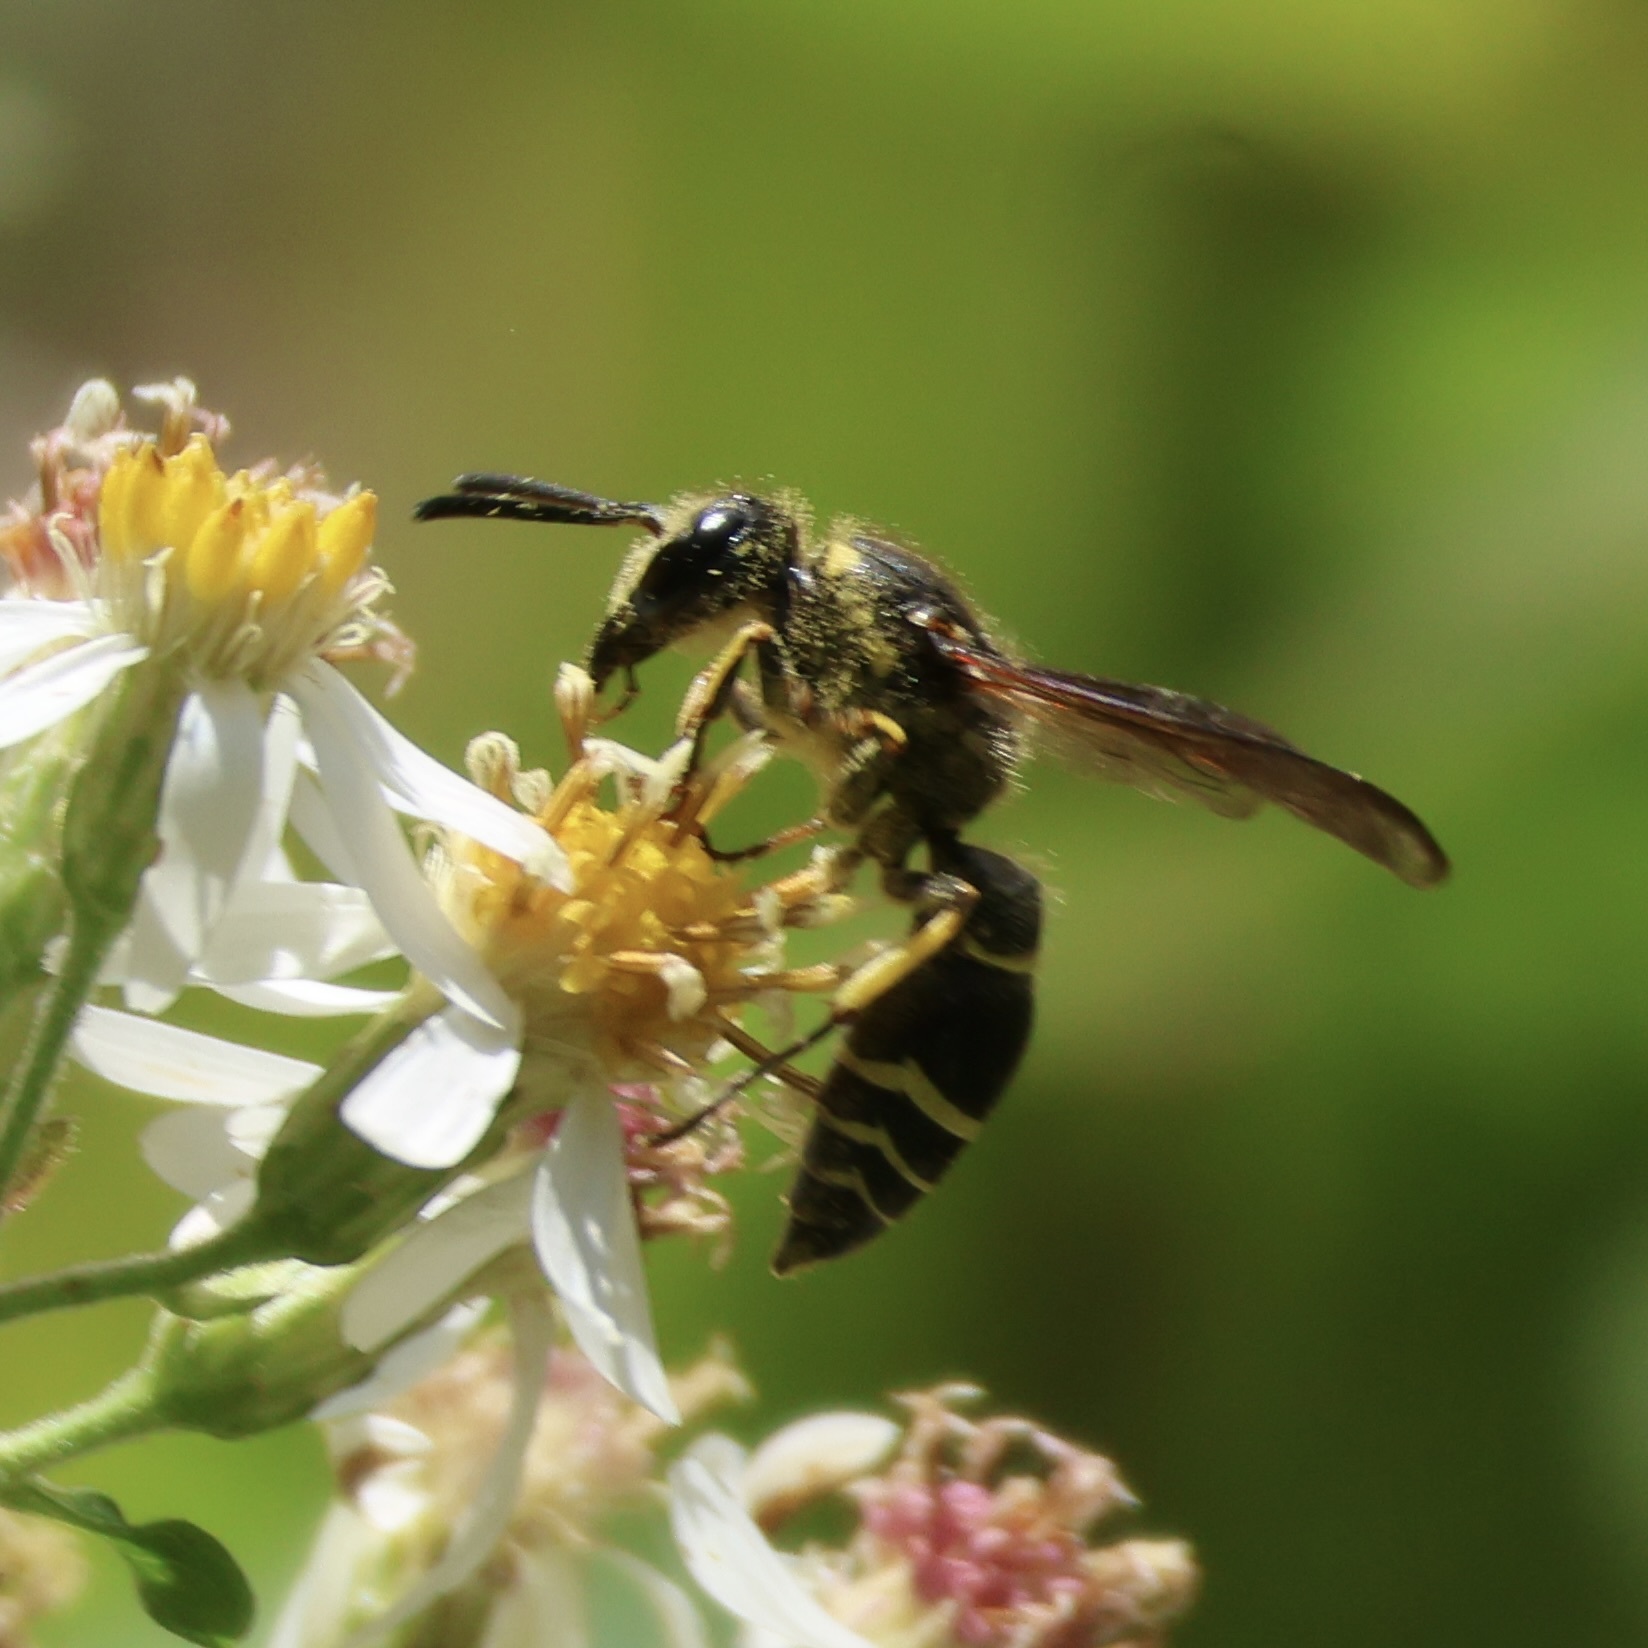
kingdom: Animalia
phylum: Arthropoda
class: Insecta
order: Hymenoptera
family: Vespidae
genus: Ancistrocerus
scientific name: Ancistrocerus
